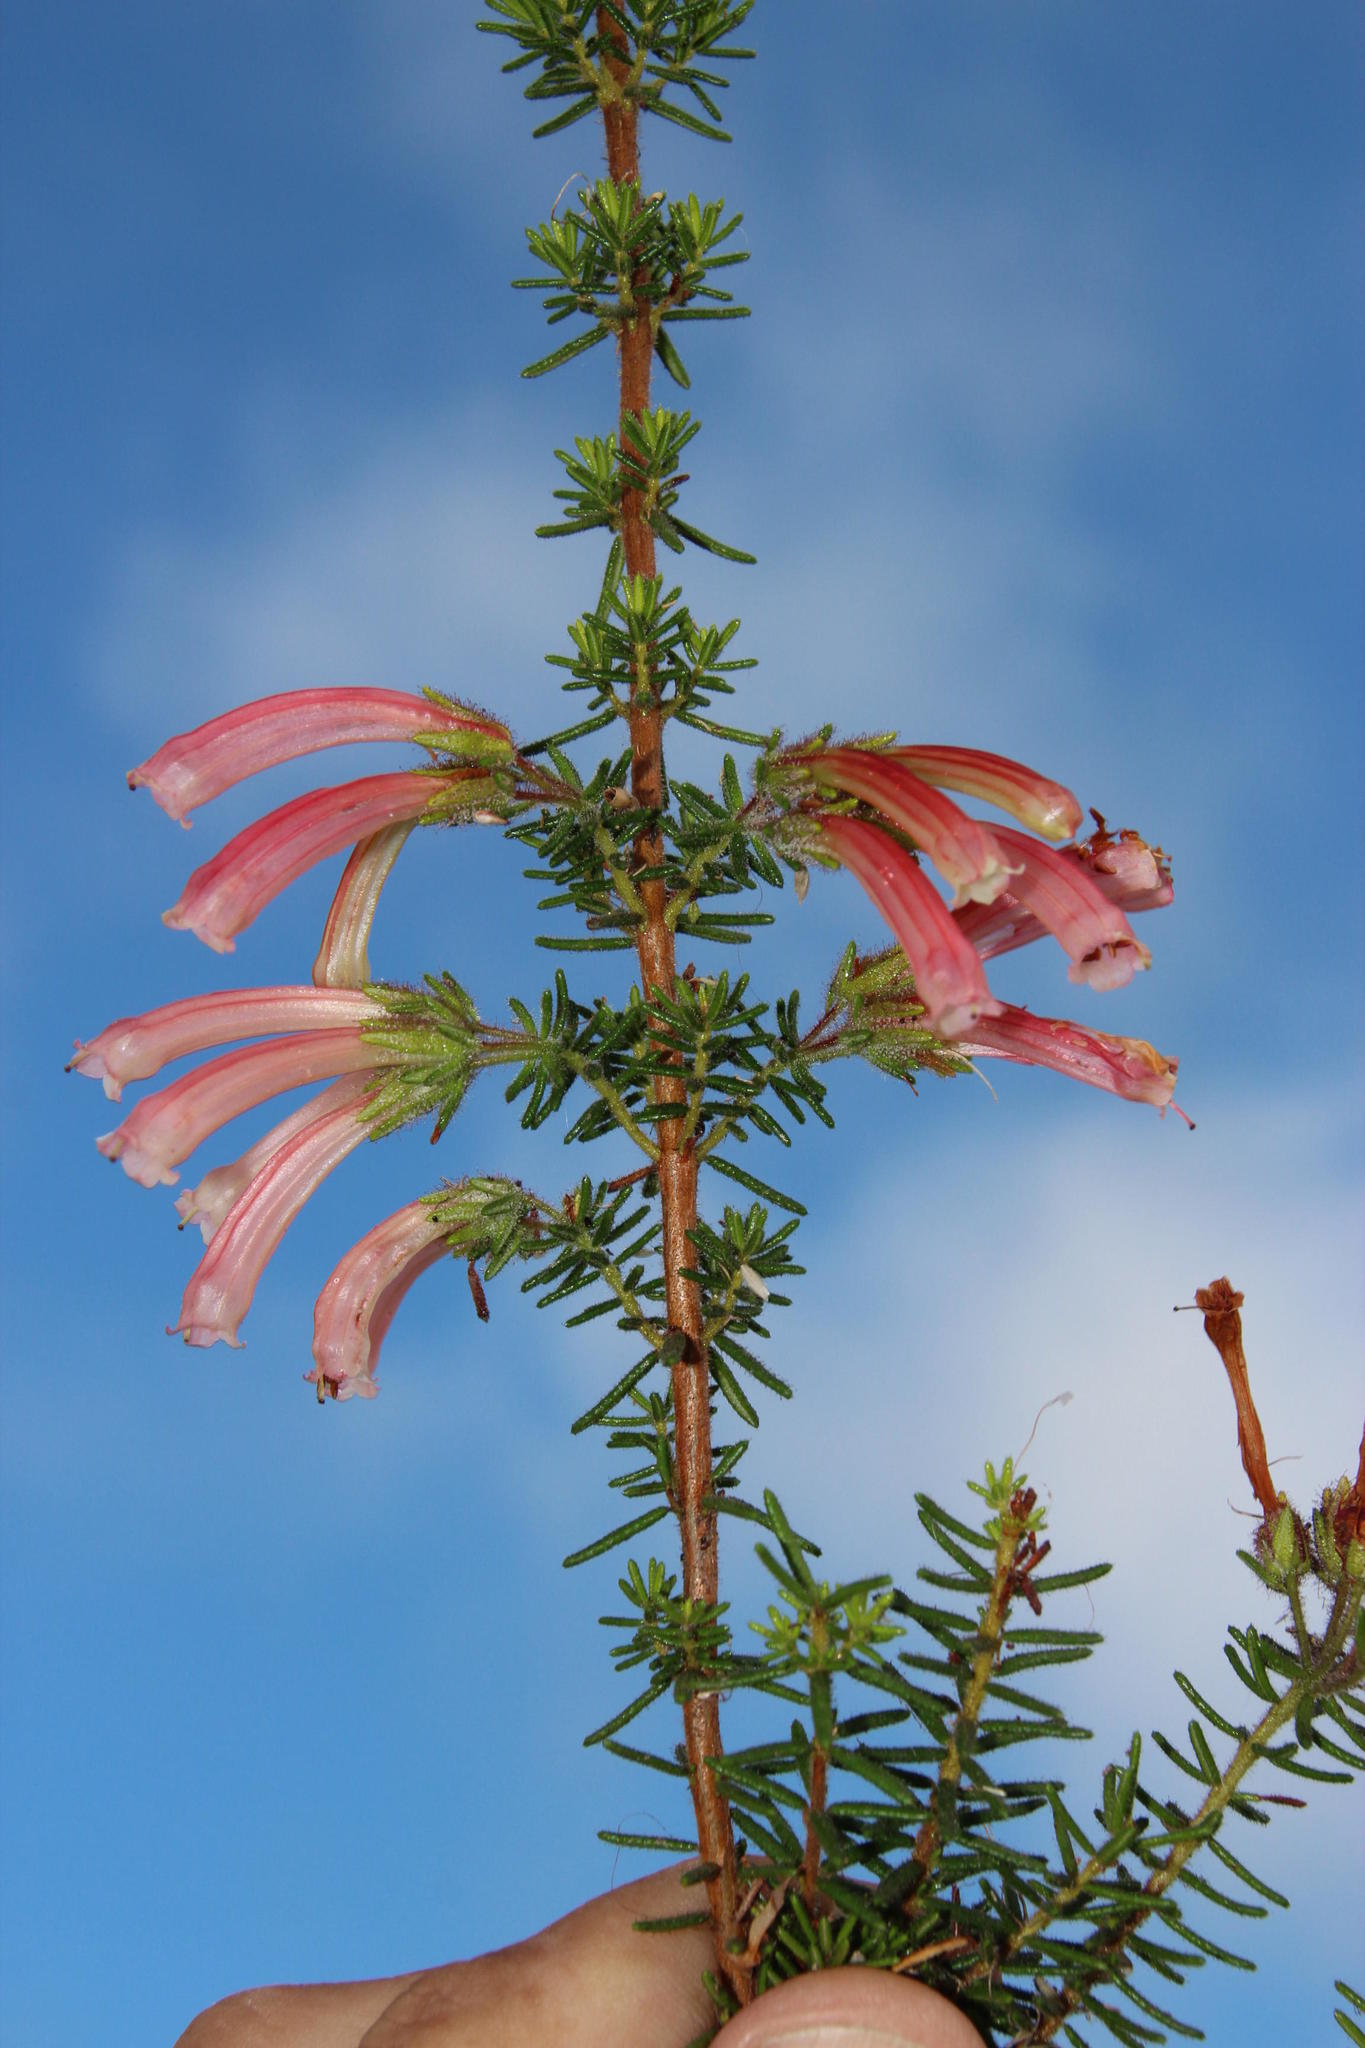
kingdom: Plantae
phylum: Tracheophyta
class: Magnoliopsida
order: Ericales
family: Ericaceae
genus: Erica
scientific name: Erica glandulosa
